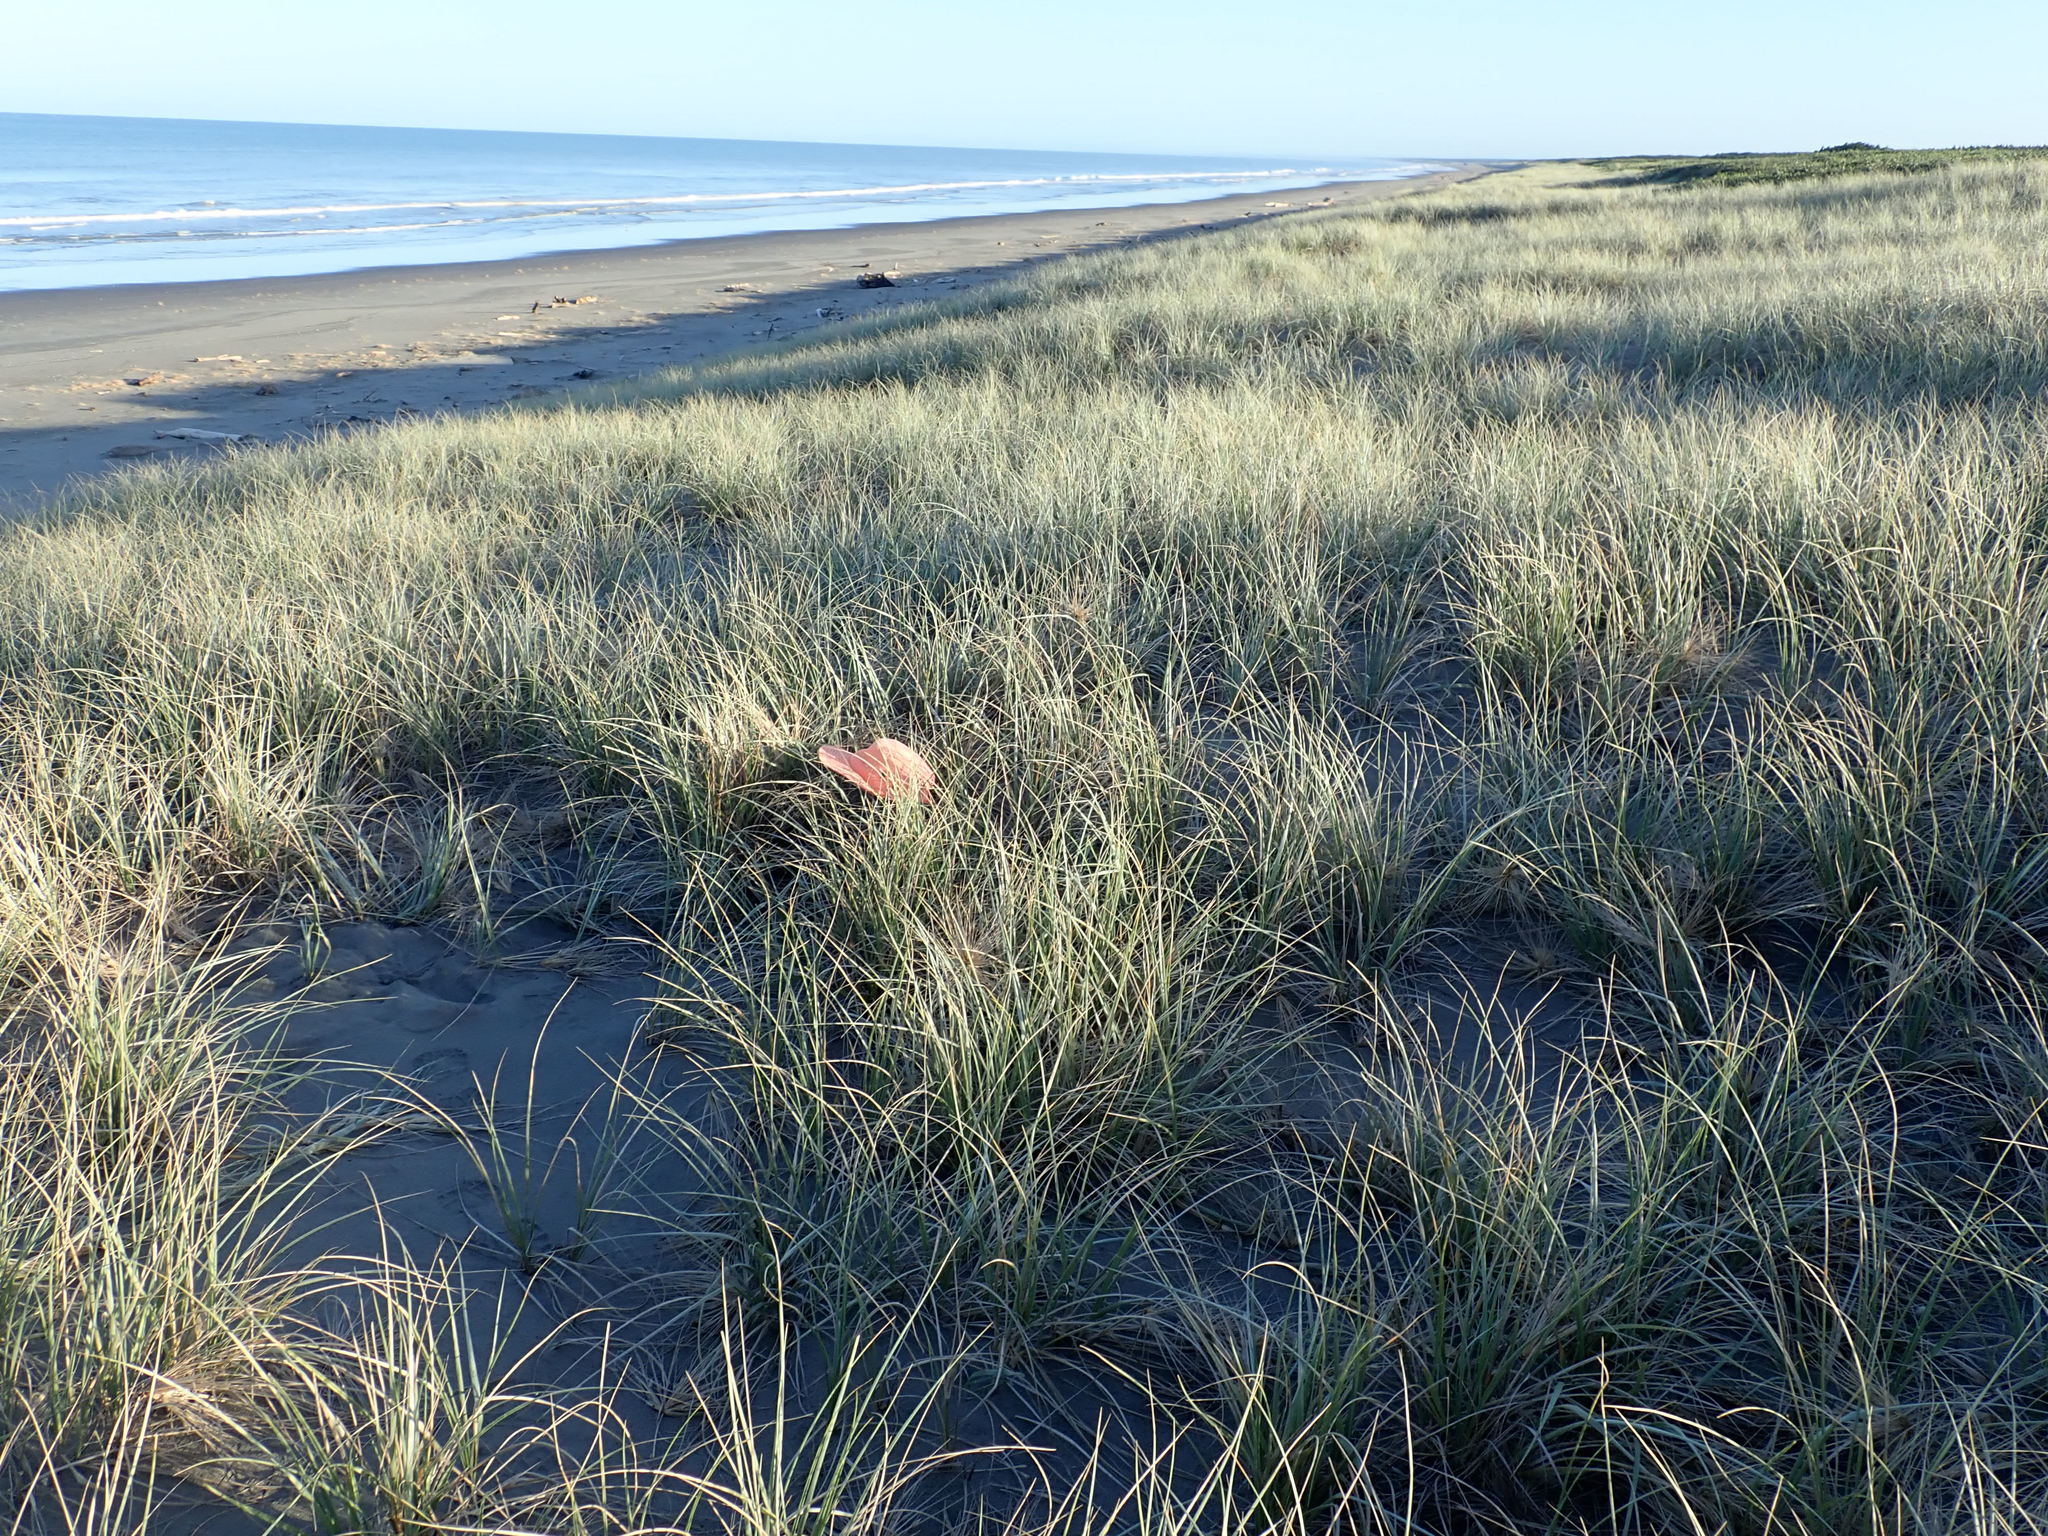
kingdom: Animalia
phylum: Arthropoda
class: Arachnida
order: Araneae
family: Theridiidae
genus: Latrodectus
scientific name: Latrodectus katipo
